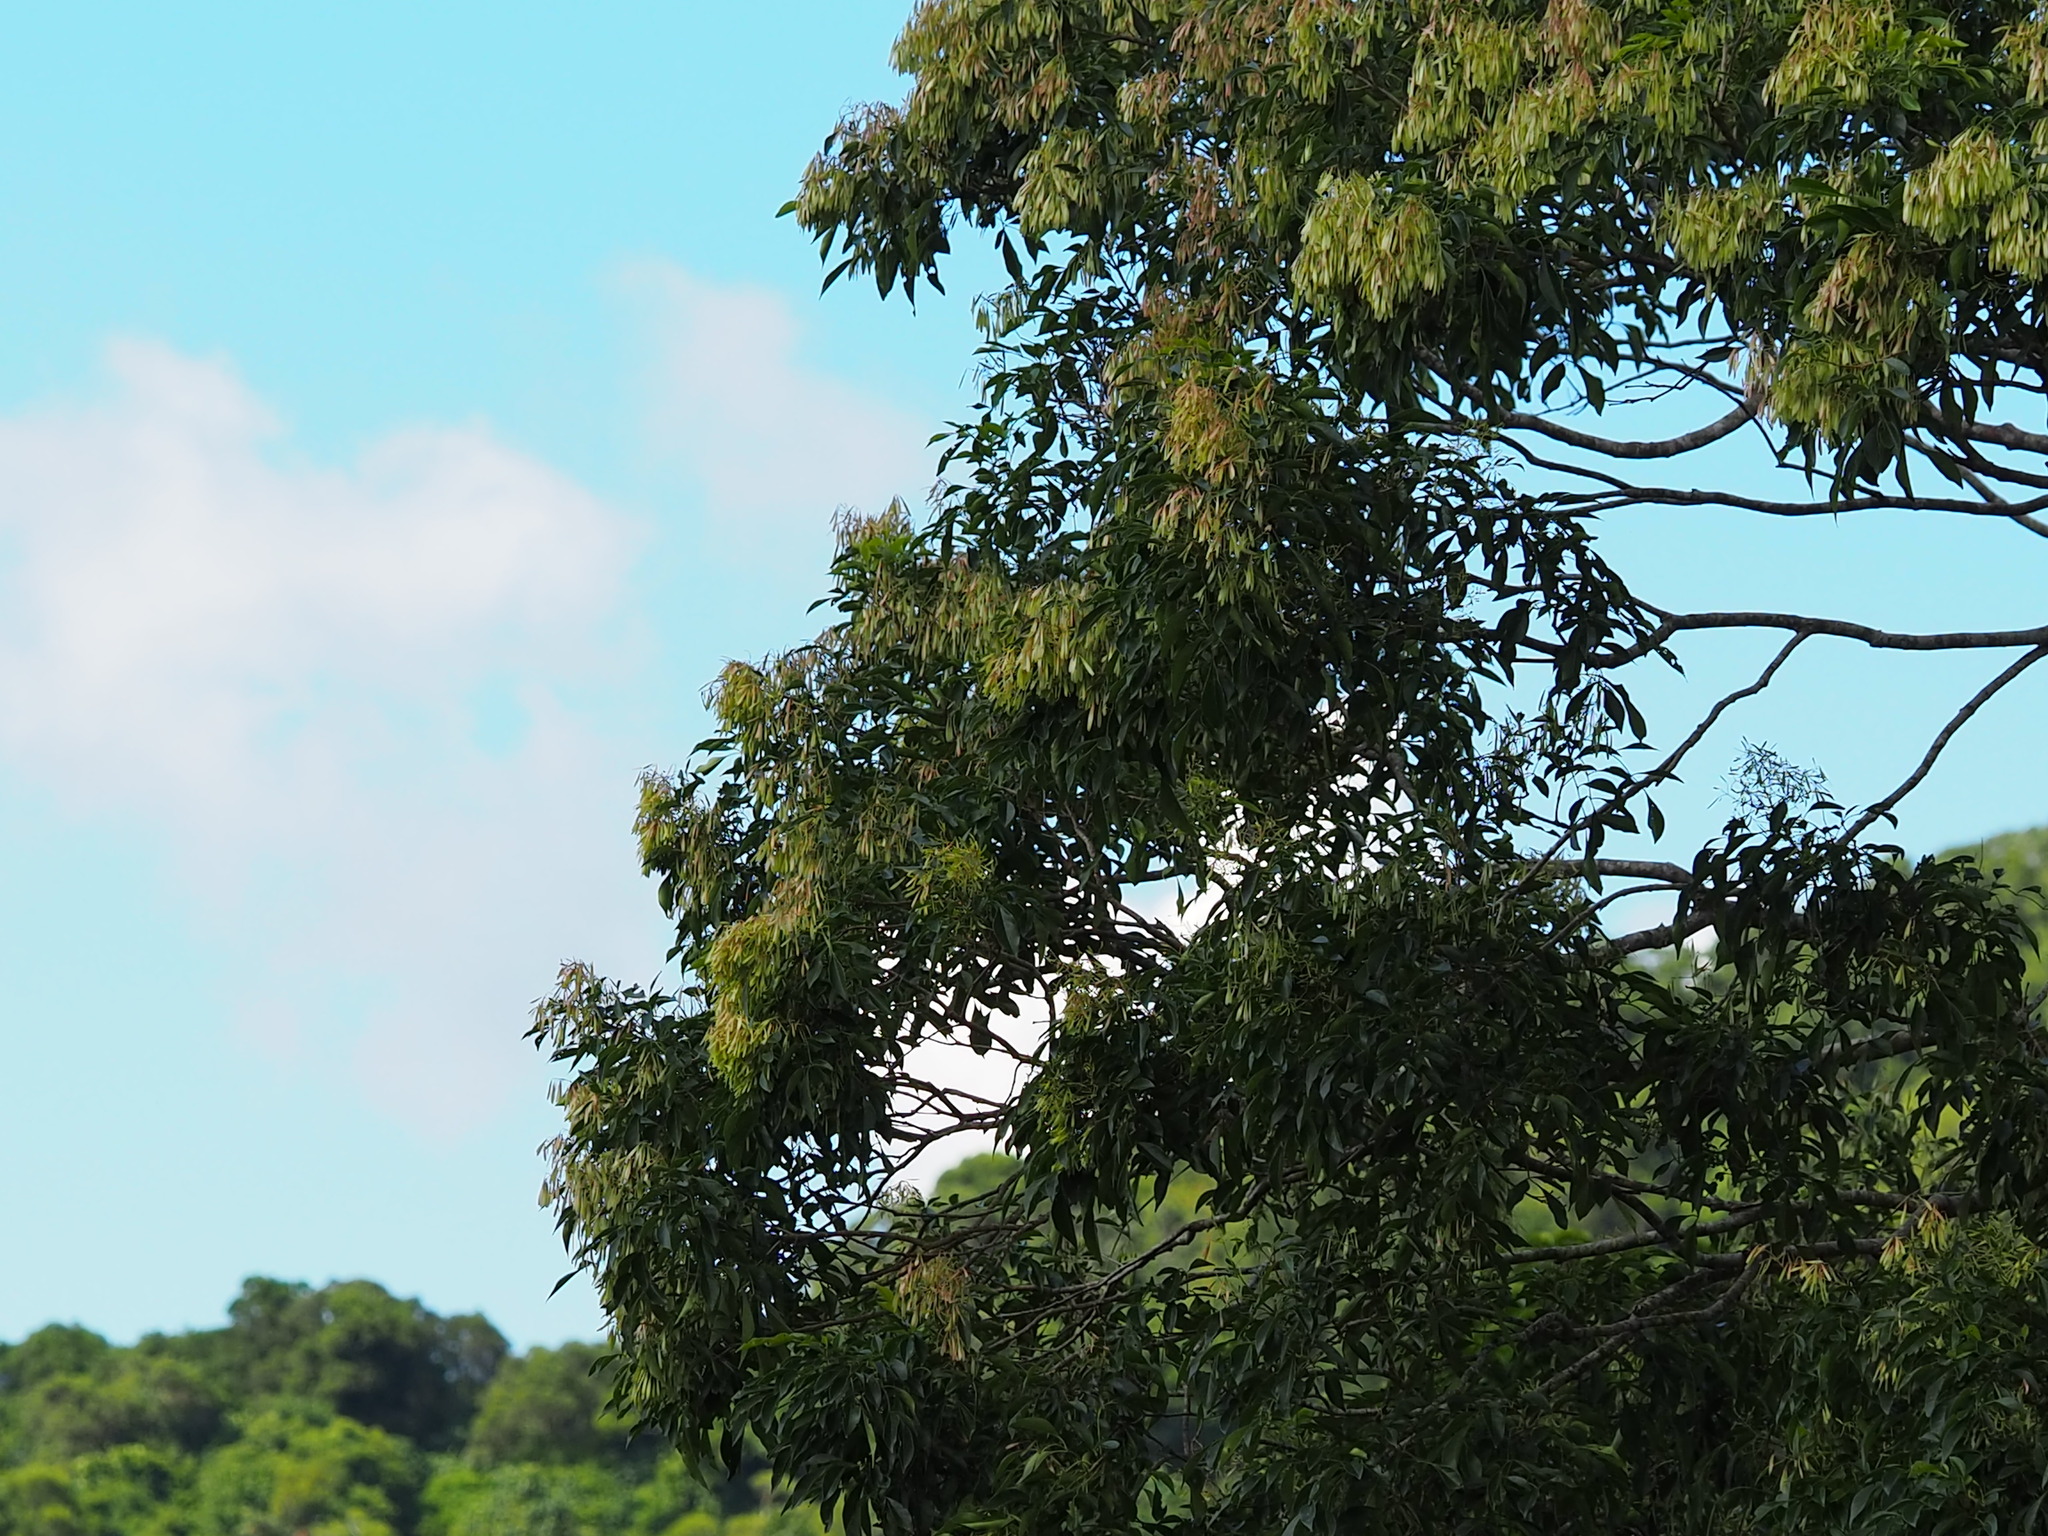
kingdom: Plantae
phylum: Tracheophyta
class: Magnoliopsida
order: Lamiales
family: Oleaceae
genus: Fraxinus
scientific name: Fraxinus griffithii
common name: Himalayan ash
